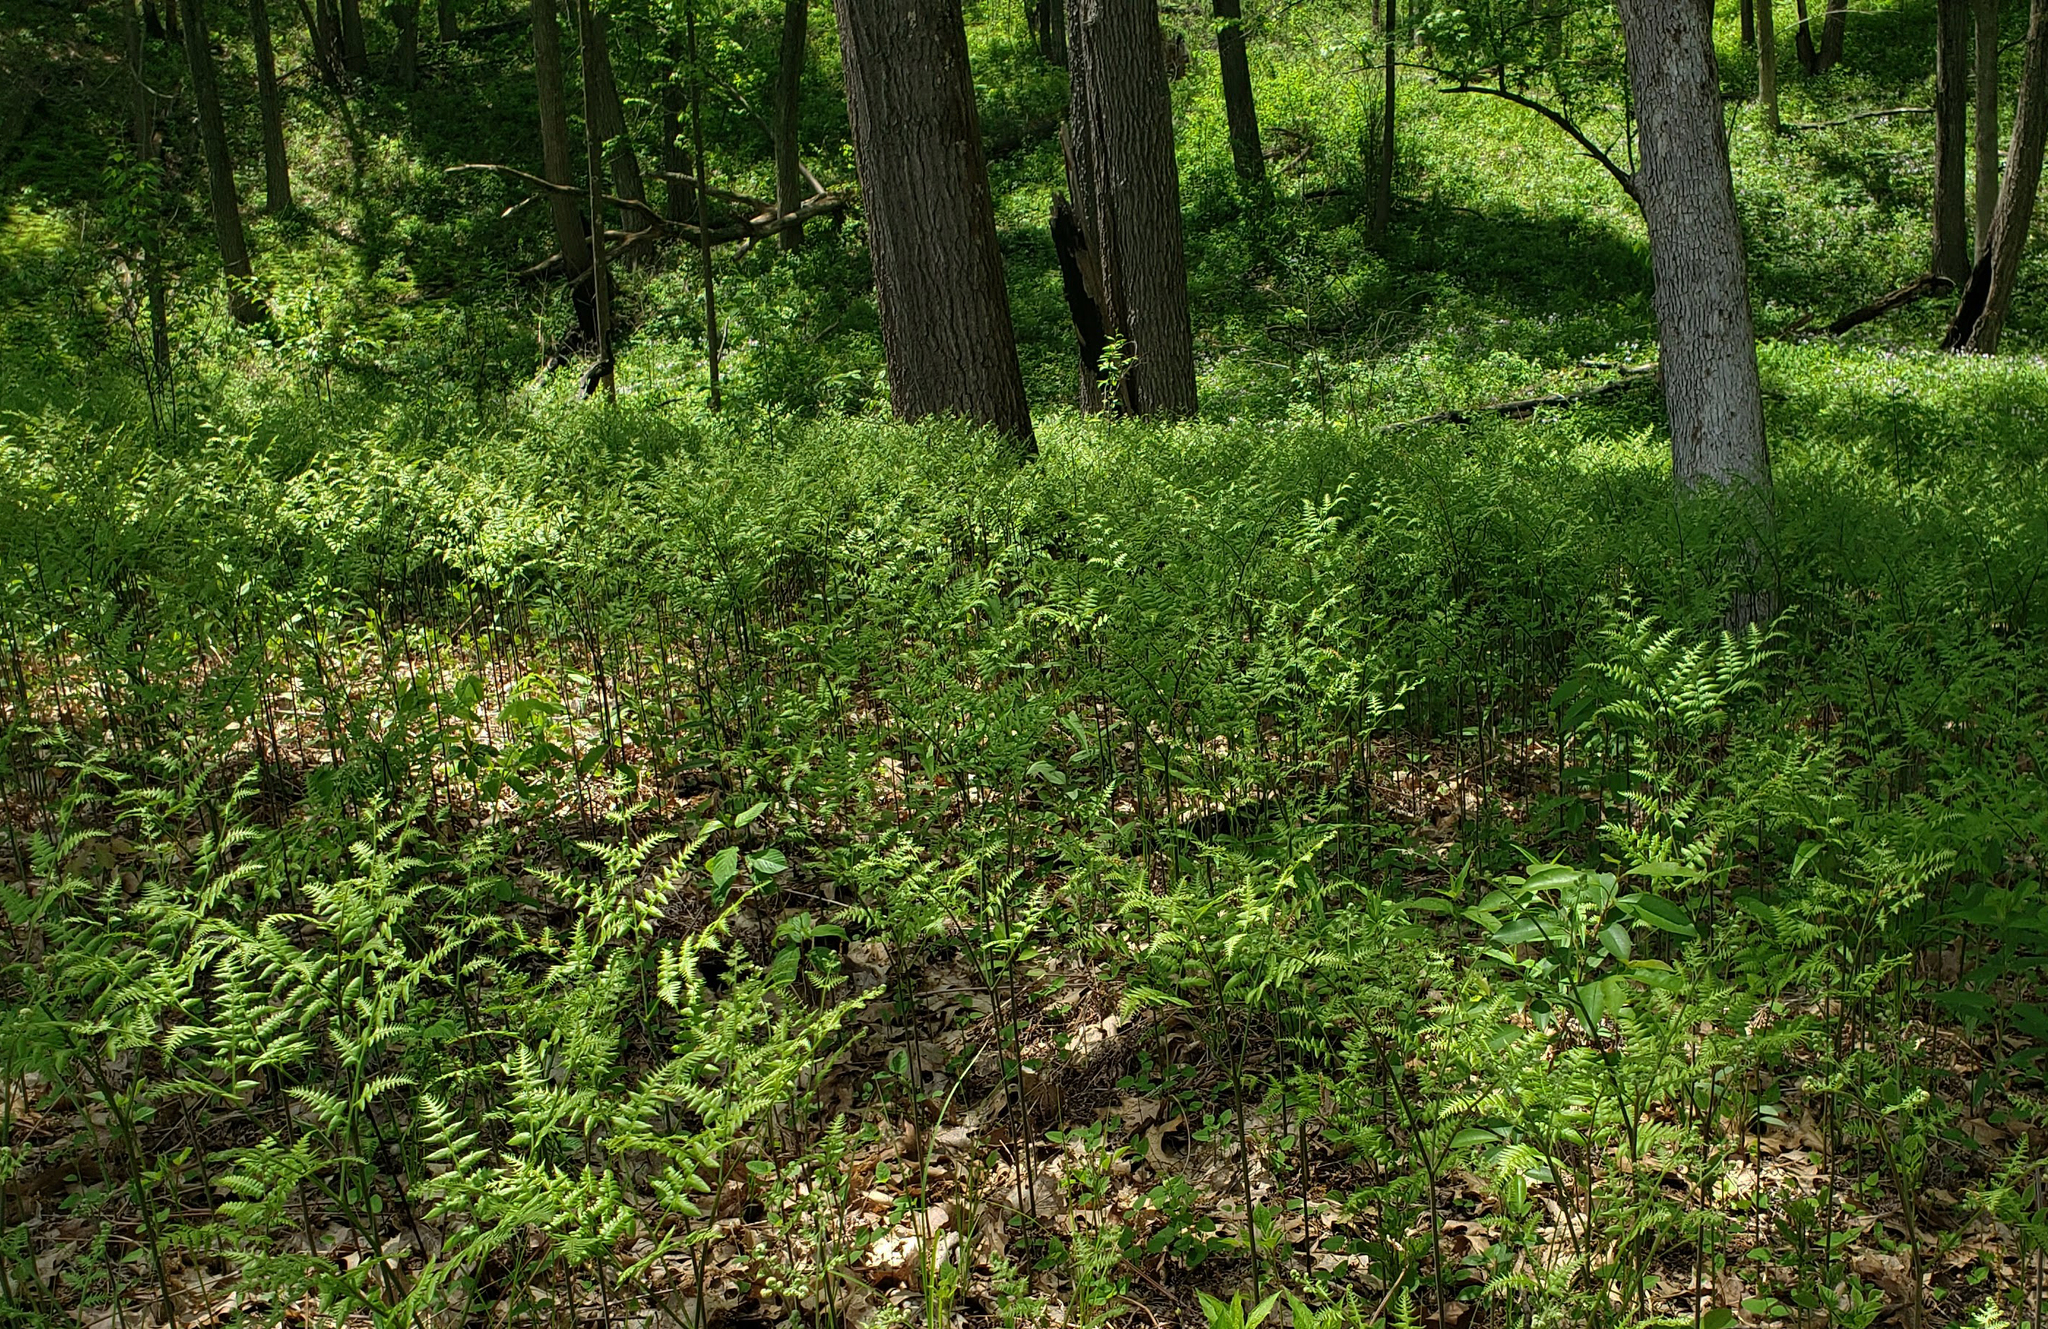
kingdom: Plantae
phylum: Tracheophyta
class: Polypodiopsida
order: Polypodiales
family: Dennstaedtiaceae
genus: Pteridium
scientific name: Pteridium aquilinum
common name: Bracken
